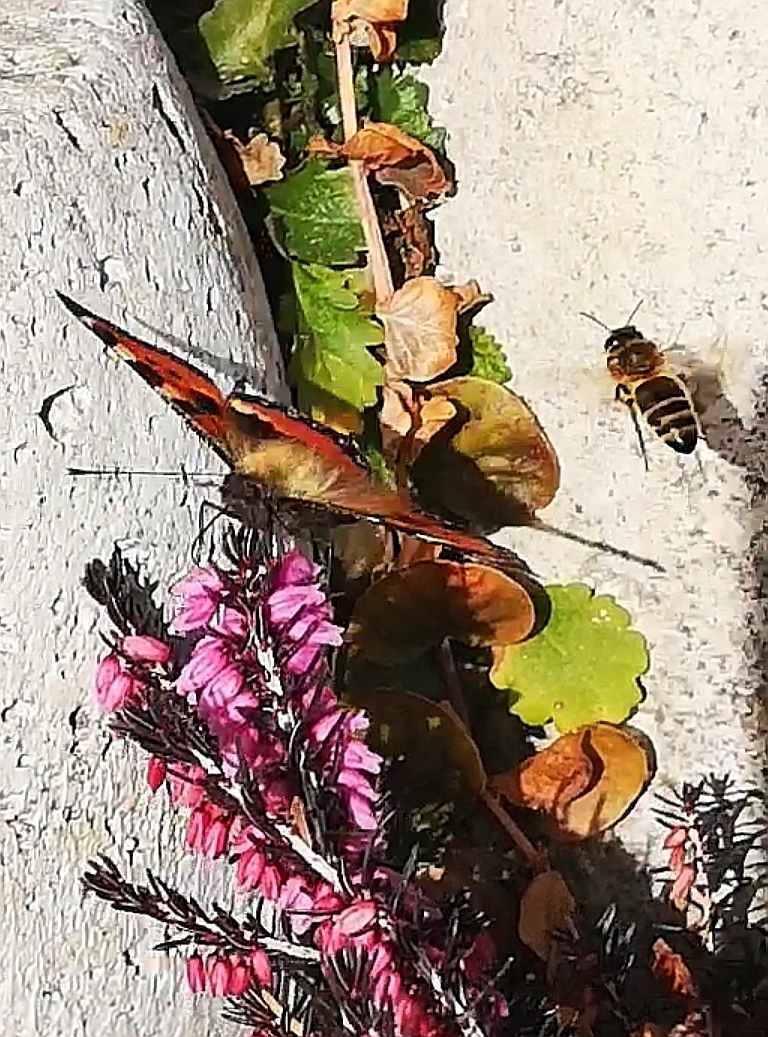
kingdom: Animalia
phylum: Arthropoda
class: Insecta
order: Lepidoptera
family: Nymphalidae
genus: Aglais
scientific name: Aglais urticae
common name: Small tortoiseshell
